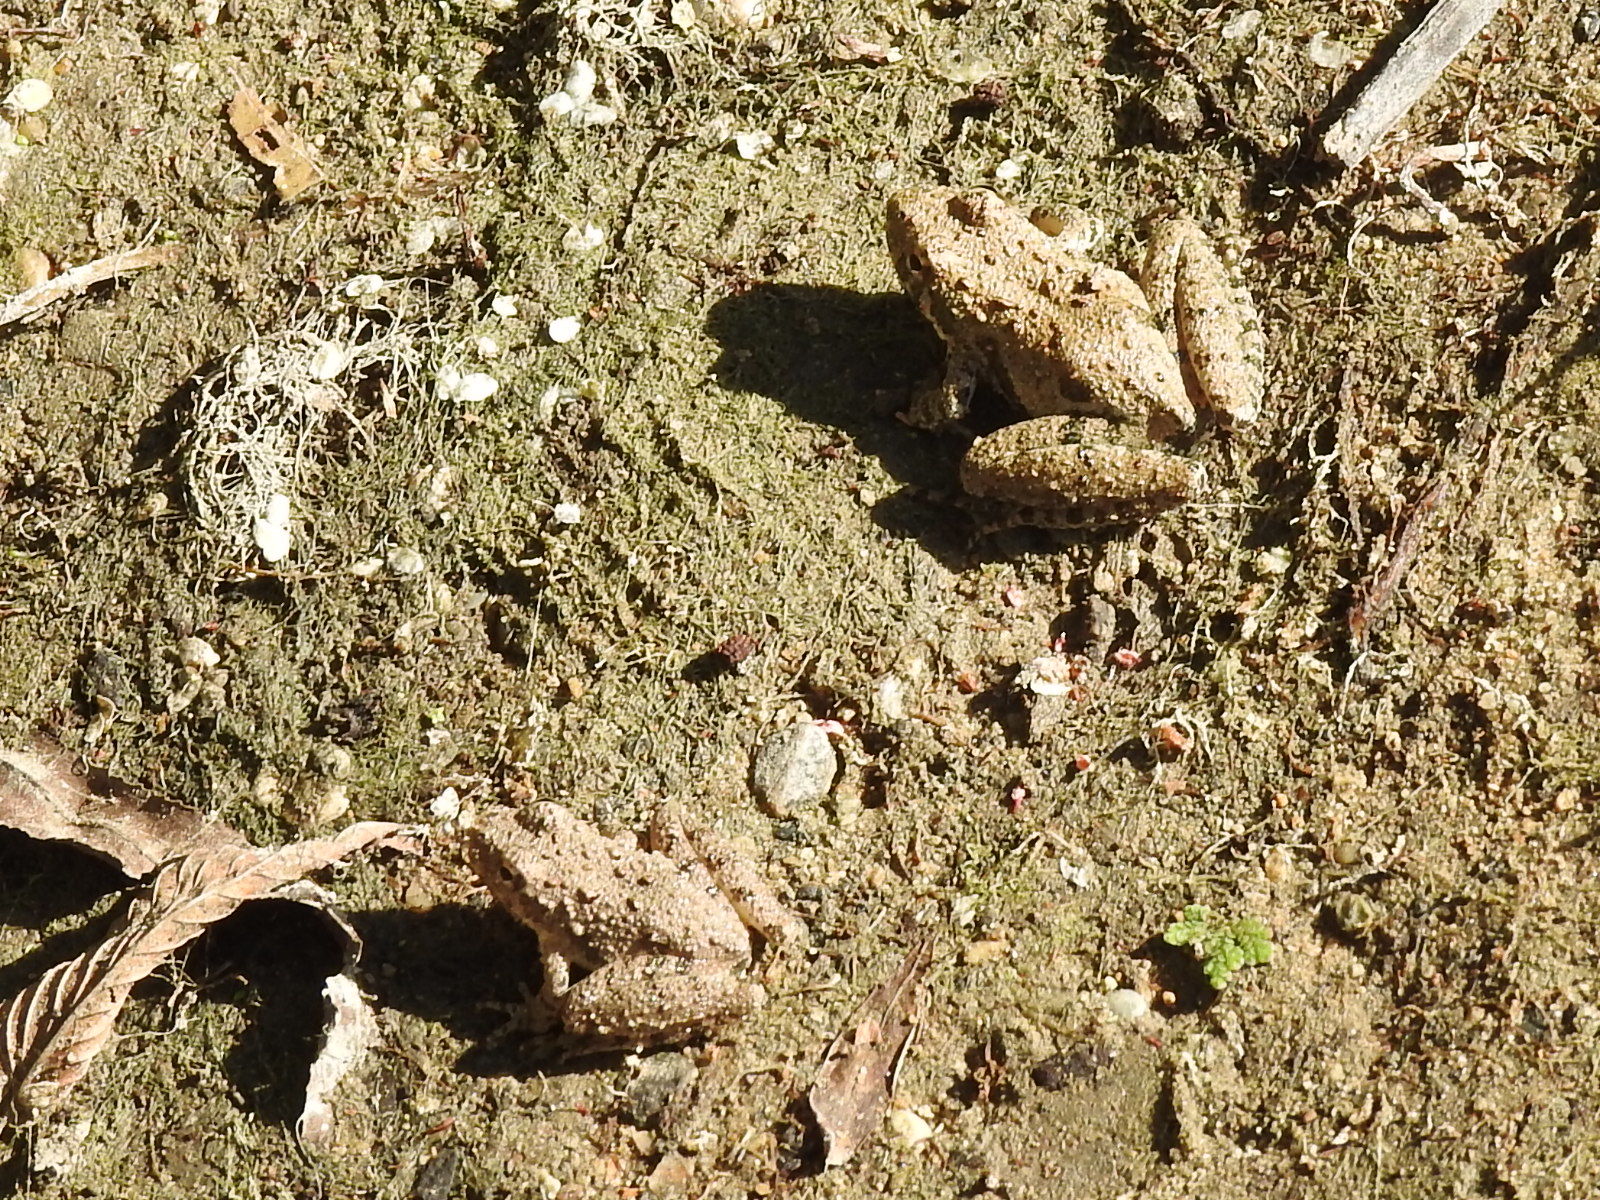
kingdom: Animalia
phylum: Chordata
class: Amphibia
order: Anura
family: Hylidae
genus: Acris
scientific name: Acris blanchardi
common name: Blanchard's cricket frog
